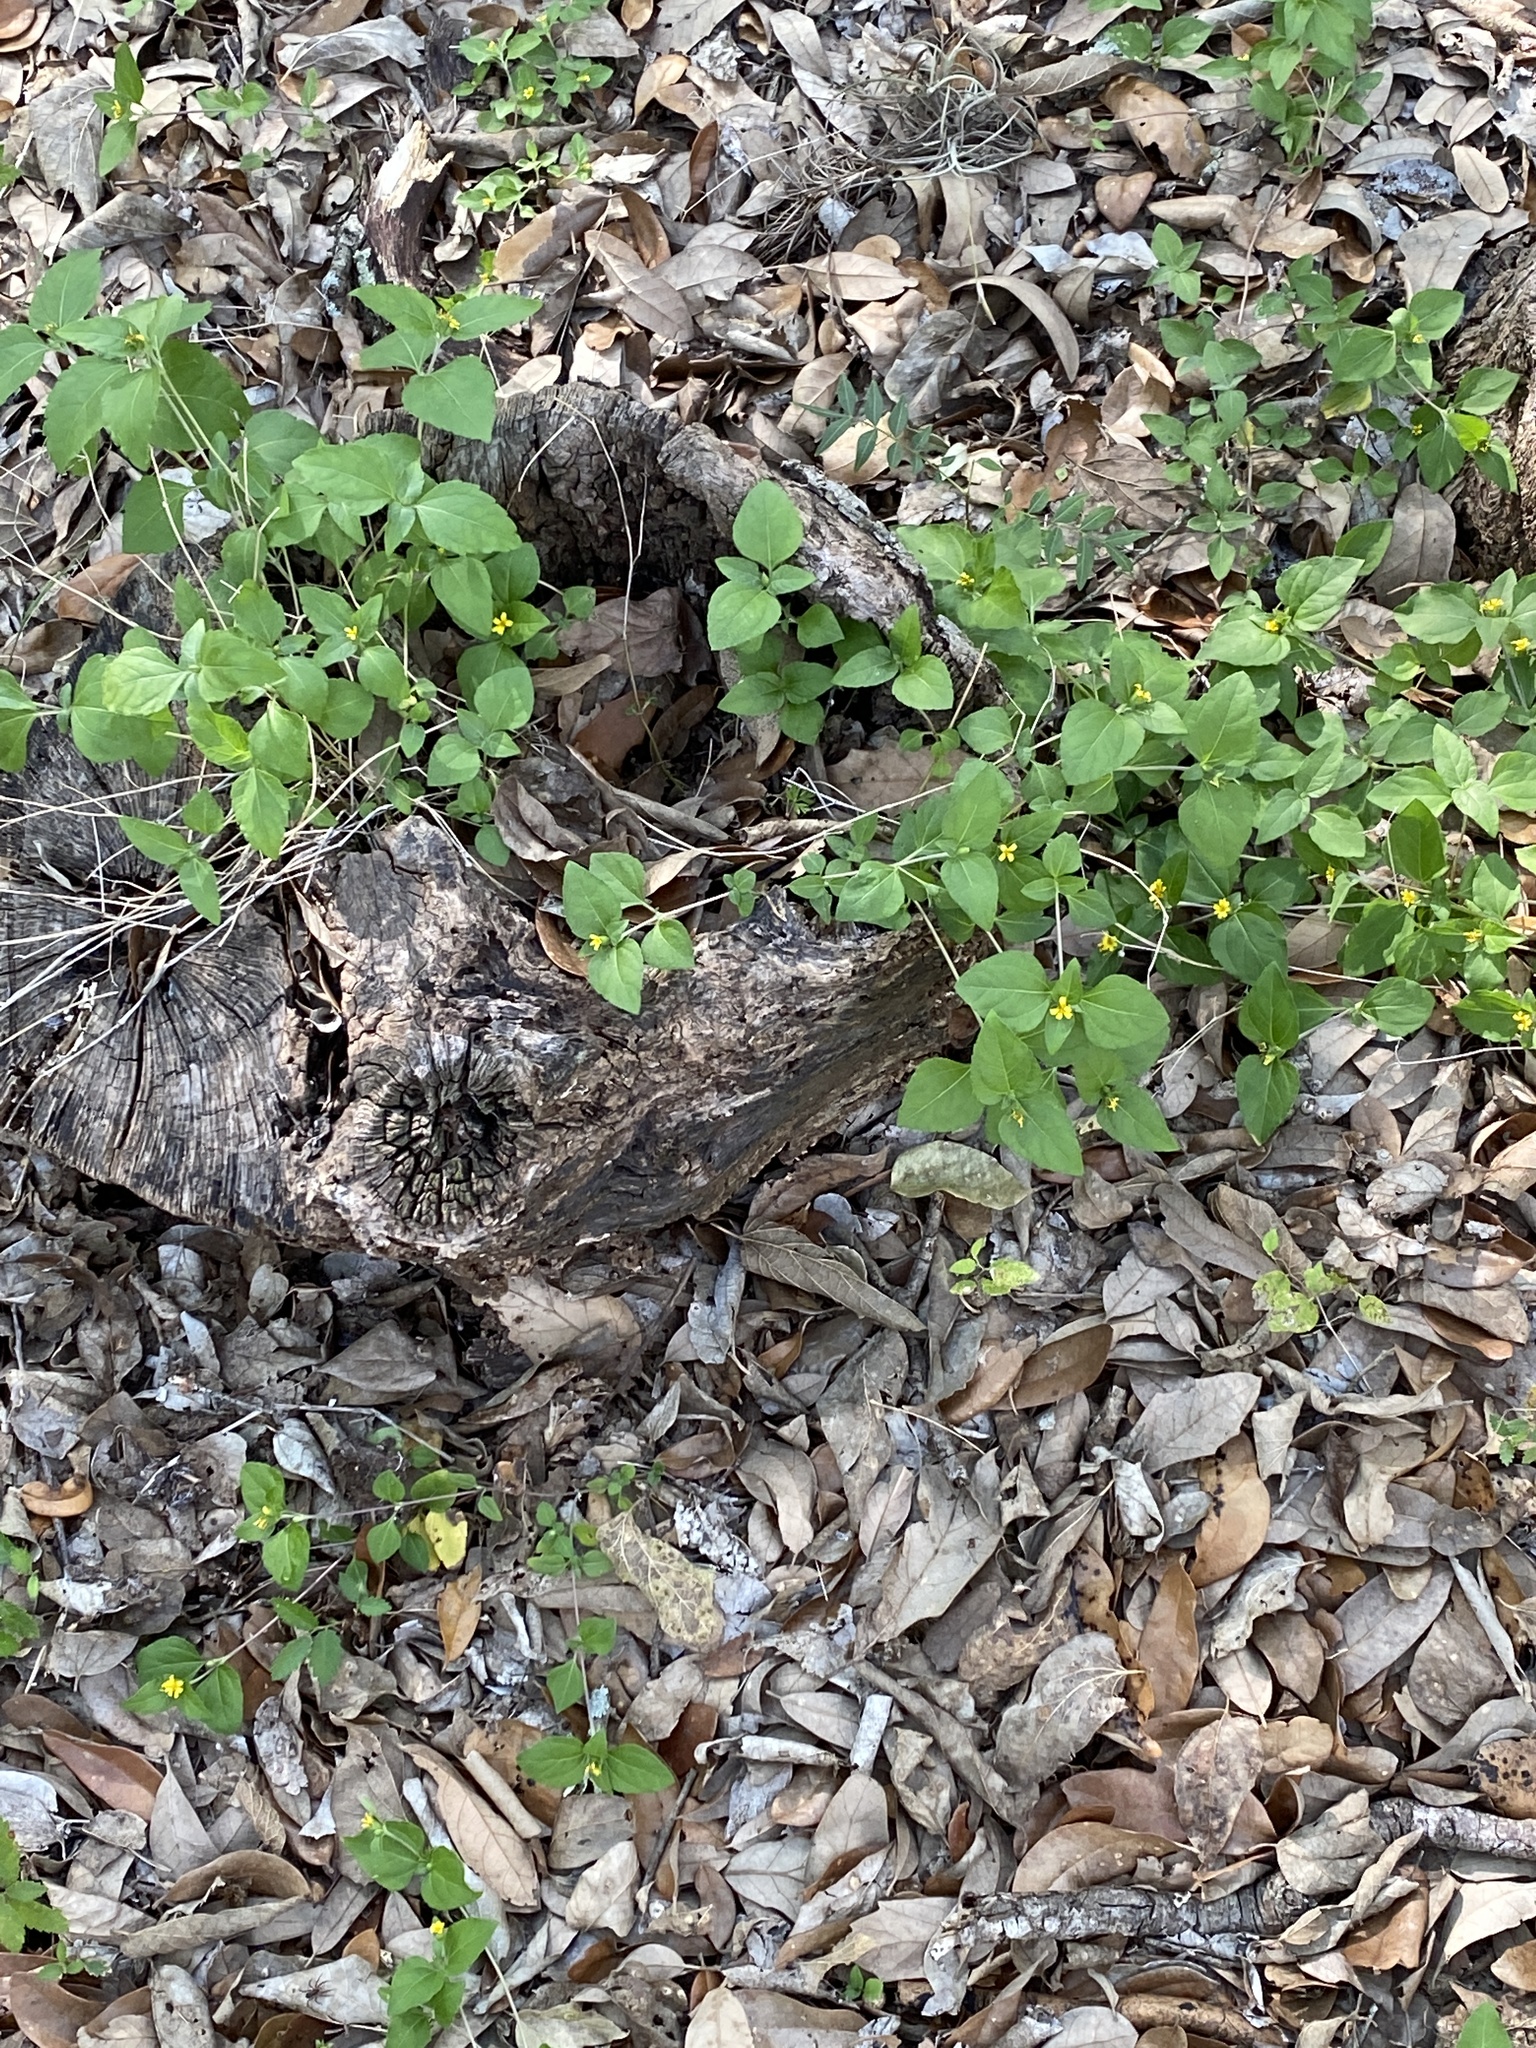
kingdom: Plantae
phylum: Tracheophyta
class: Magnoliopsida
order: Asterales
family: Asteraceae
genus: Calyptocarpus
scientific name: Calyptocarpus vialis
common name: Straggler daisy
